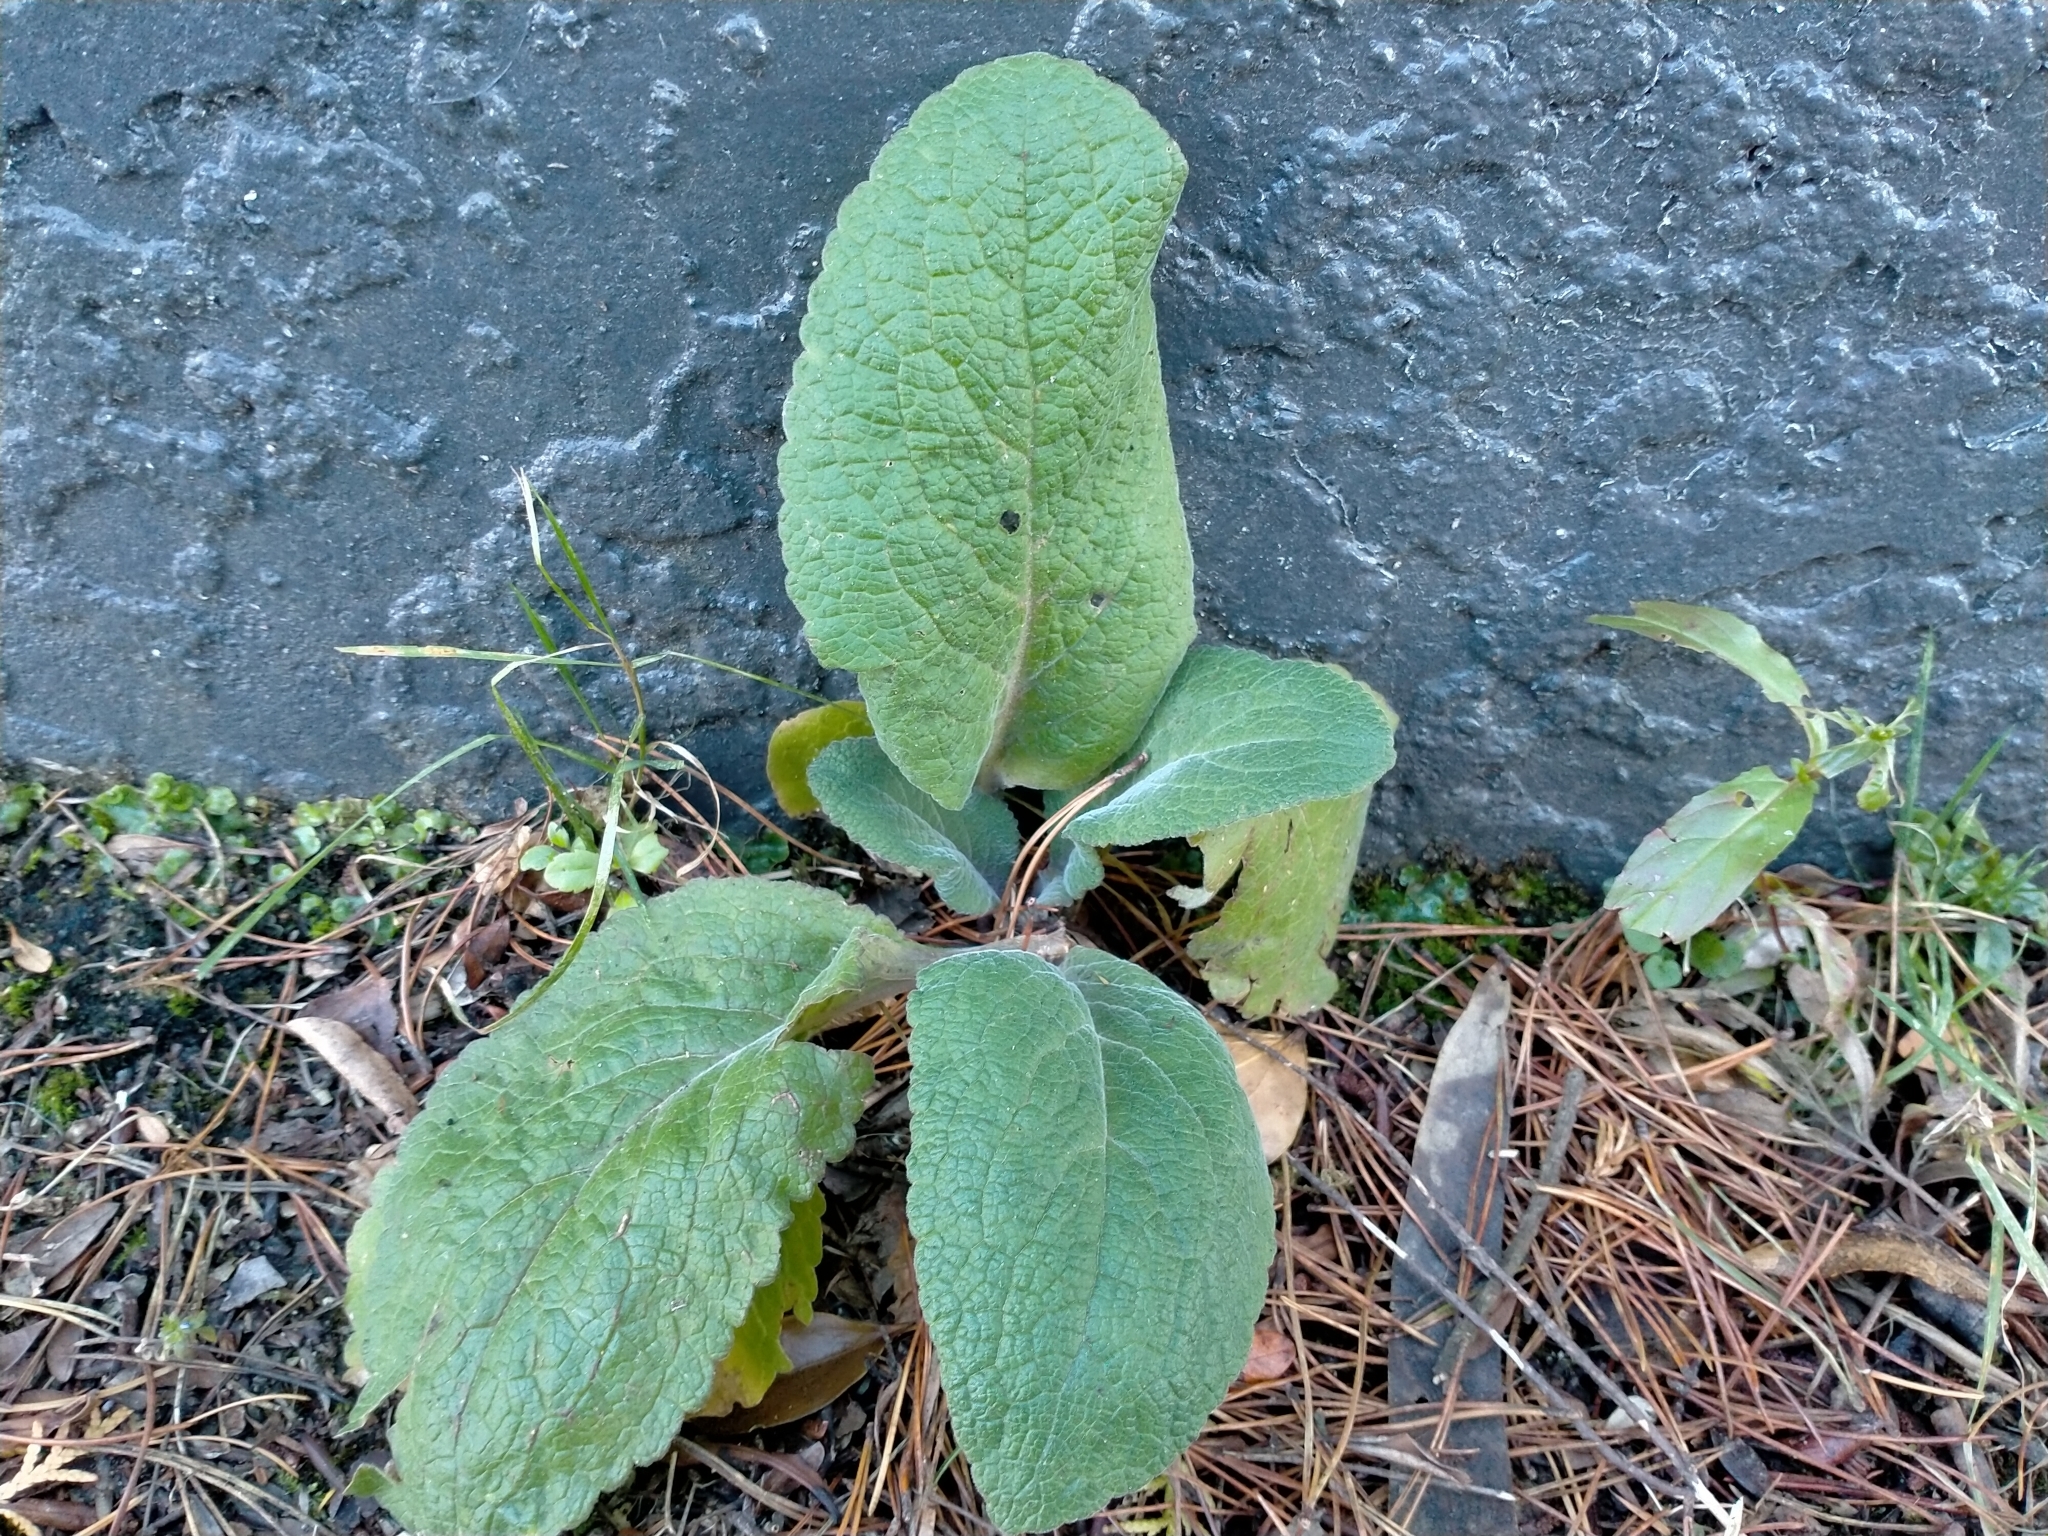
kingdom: Plantae
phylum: Tracheophyta
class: Magnoliopsida
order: Lamiales
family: Plantaginaceae
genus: Digitalis
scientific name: Digitalis purpurea
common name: Foxglove
